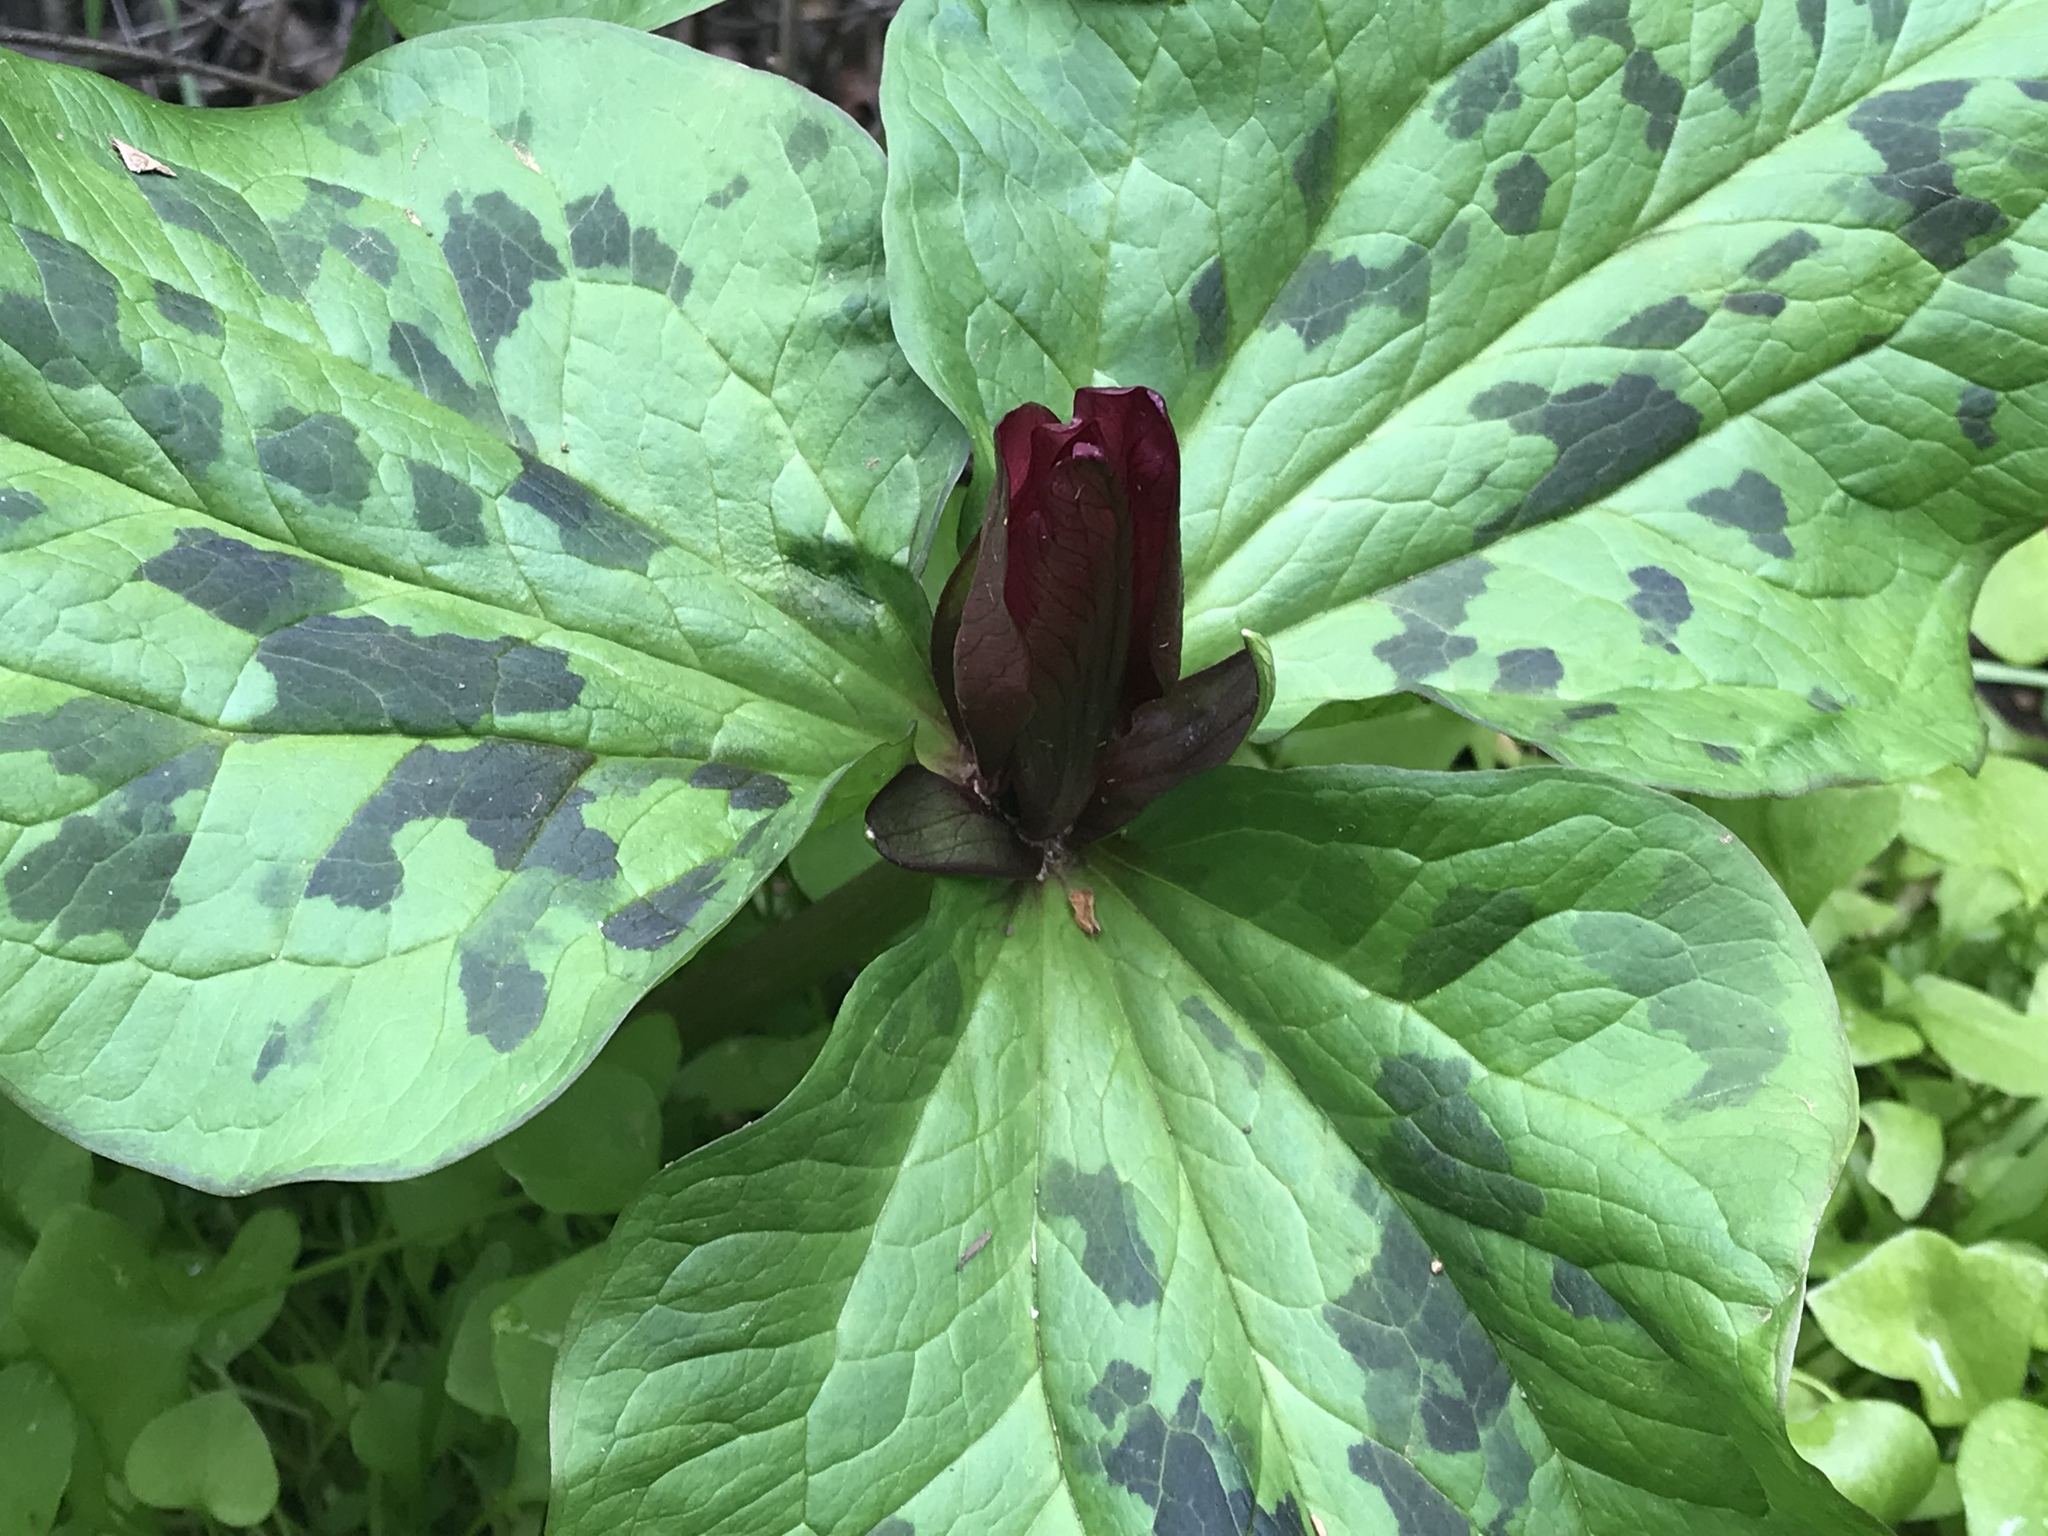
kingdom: Plantae
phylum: Tracheophyta
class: Liliopsida
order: Liliales
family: Melanthiaceae
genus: Trillium
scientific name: Trillium chloropetalum
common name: Giant trillium
